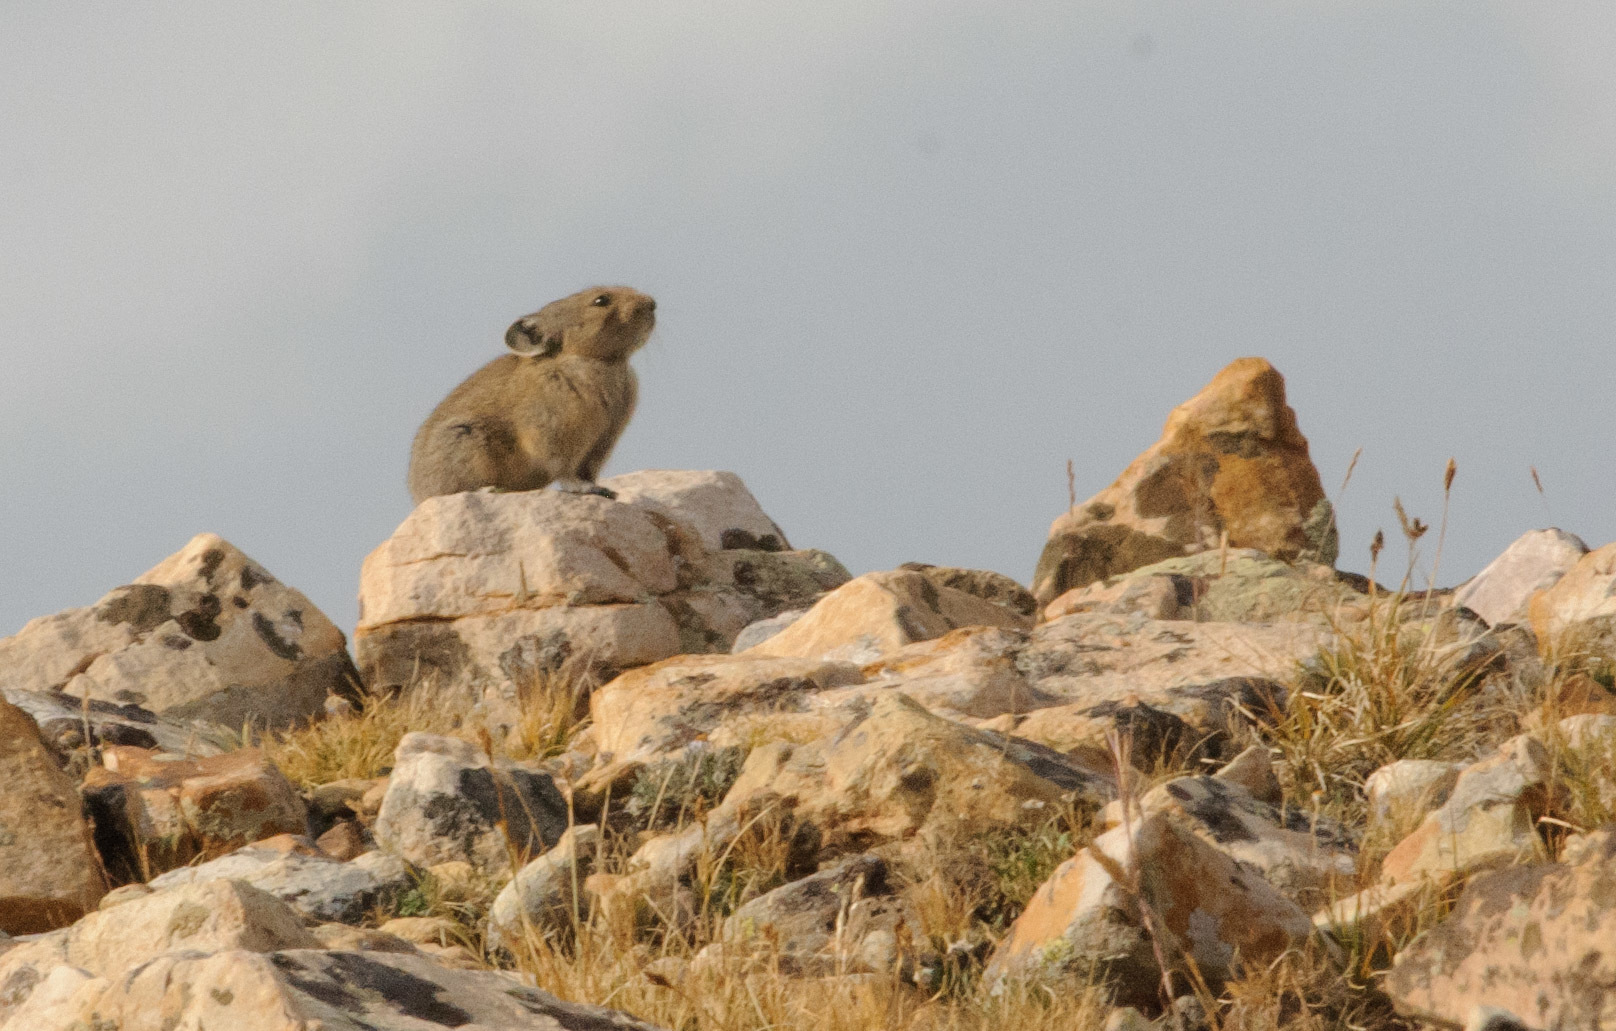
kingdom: Animalia
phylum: Chordata
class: Mammalia
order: Lagomorpha
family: Ochotonidae
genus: Ochotona
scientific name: Ochotona princeps
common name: American pika
